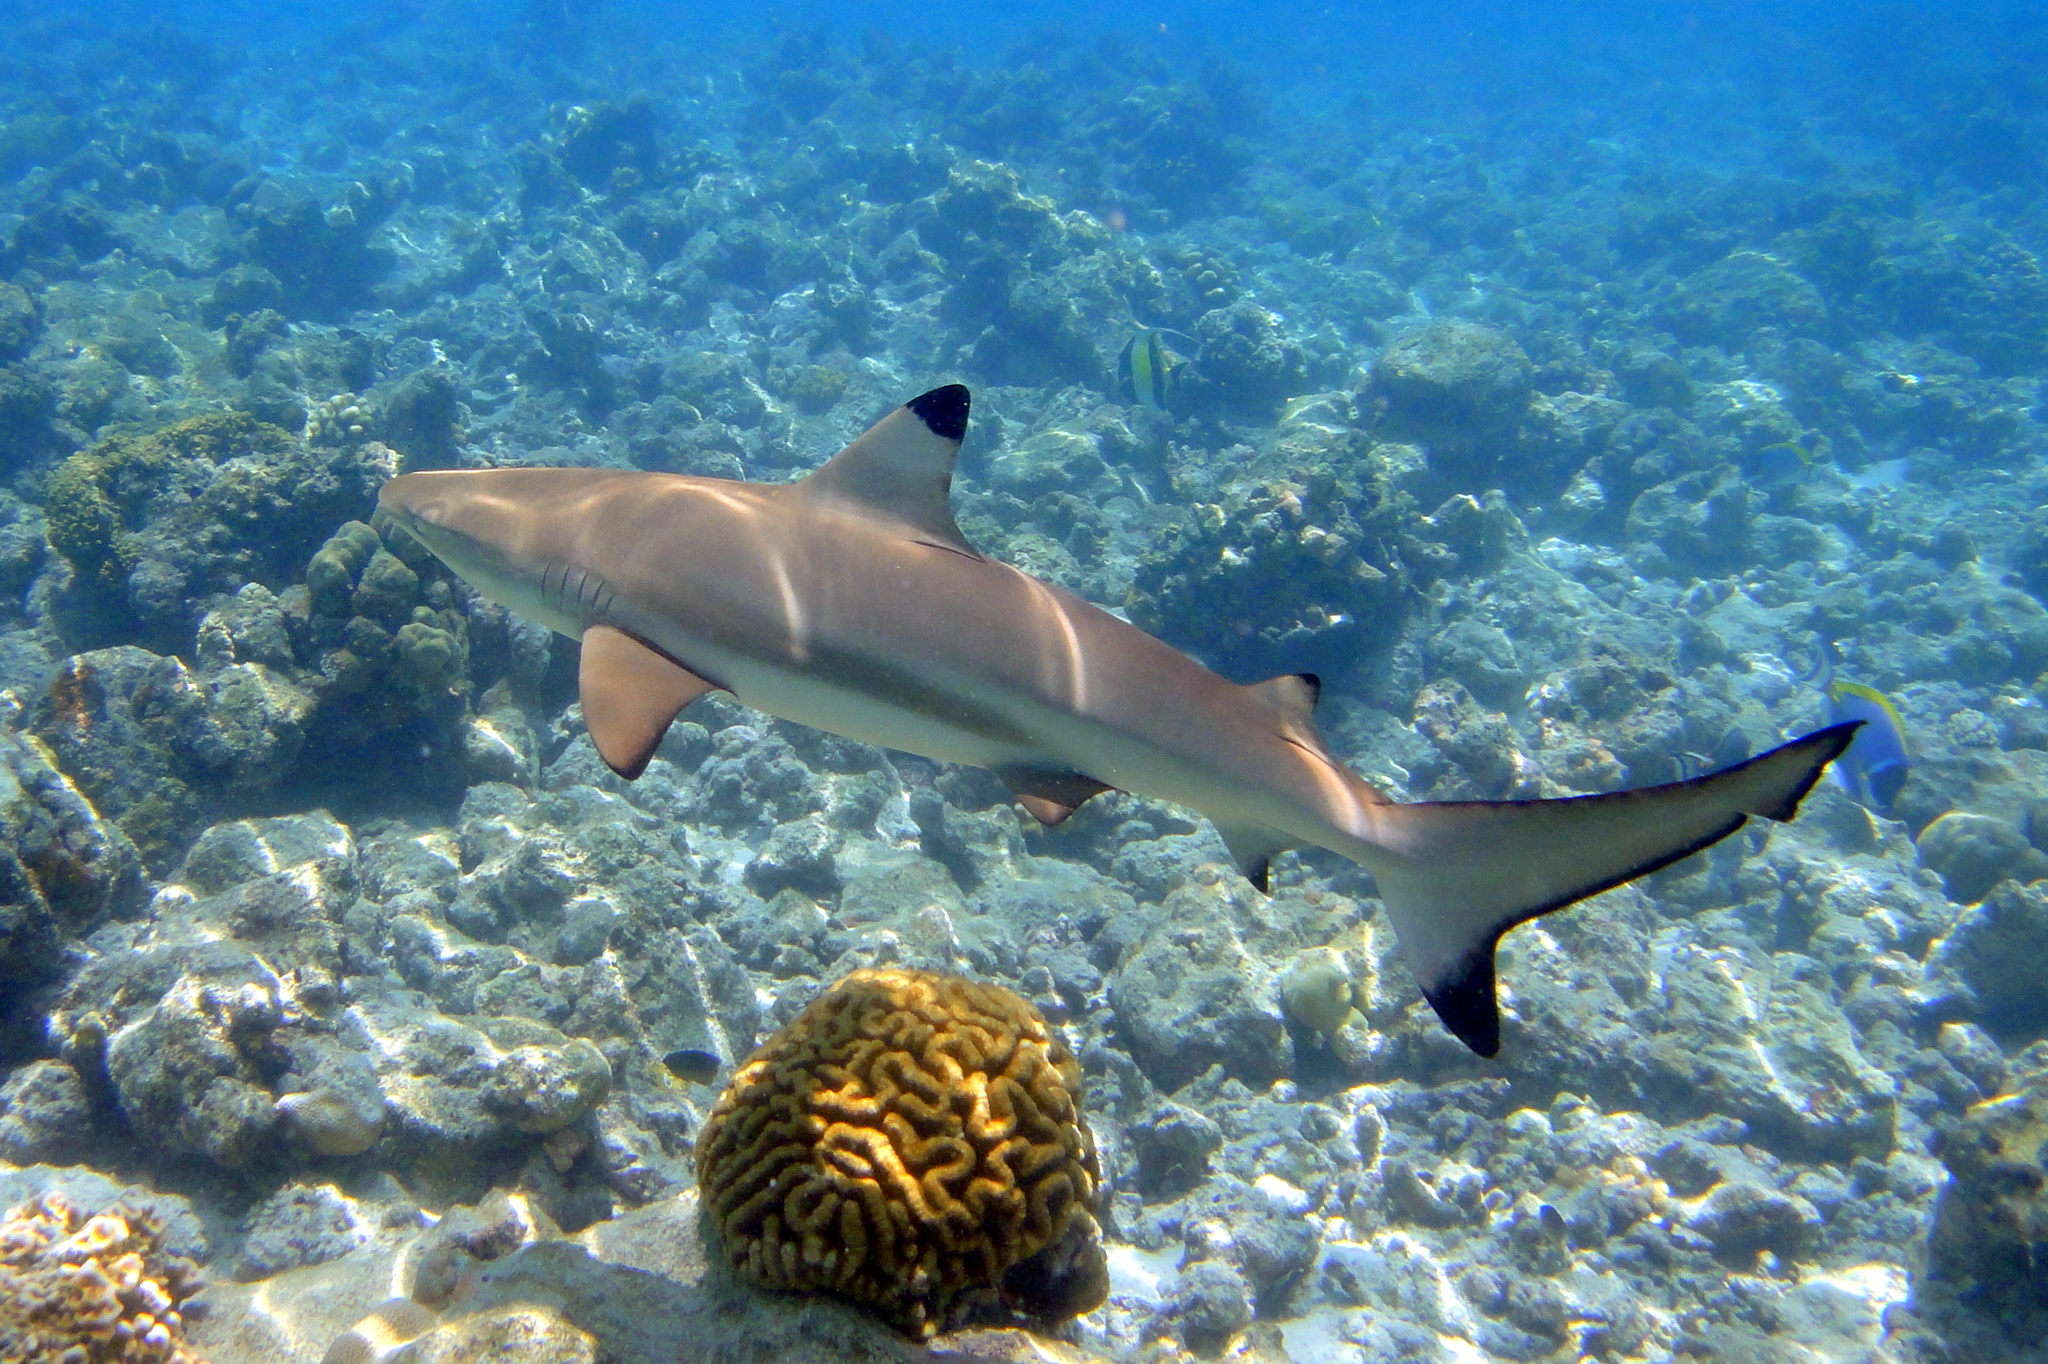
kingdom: Animalia
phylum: Chordata
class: Elasmobranchii
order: Carcharhiniformes
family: Carcharhinidae
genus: Carcharhinus
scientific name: Carcharhinus melanopterus
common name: Blacktip reef shark
